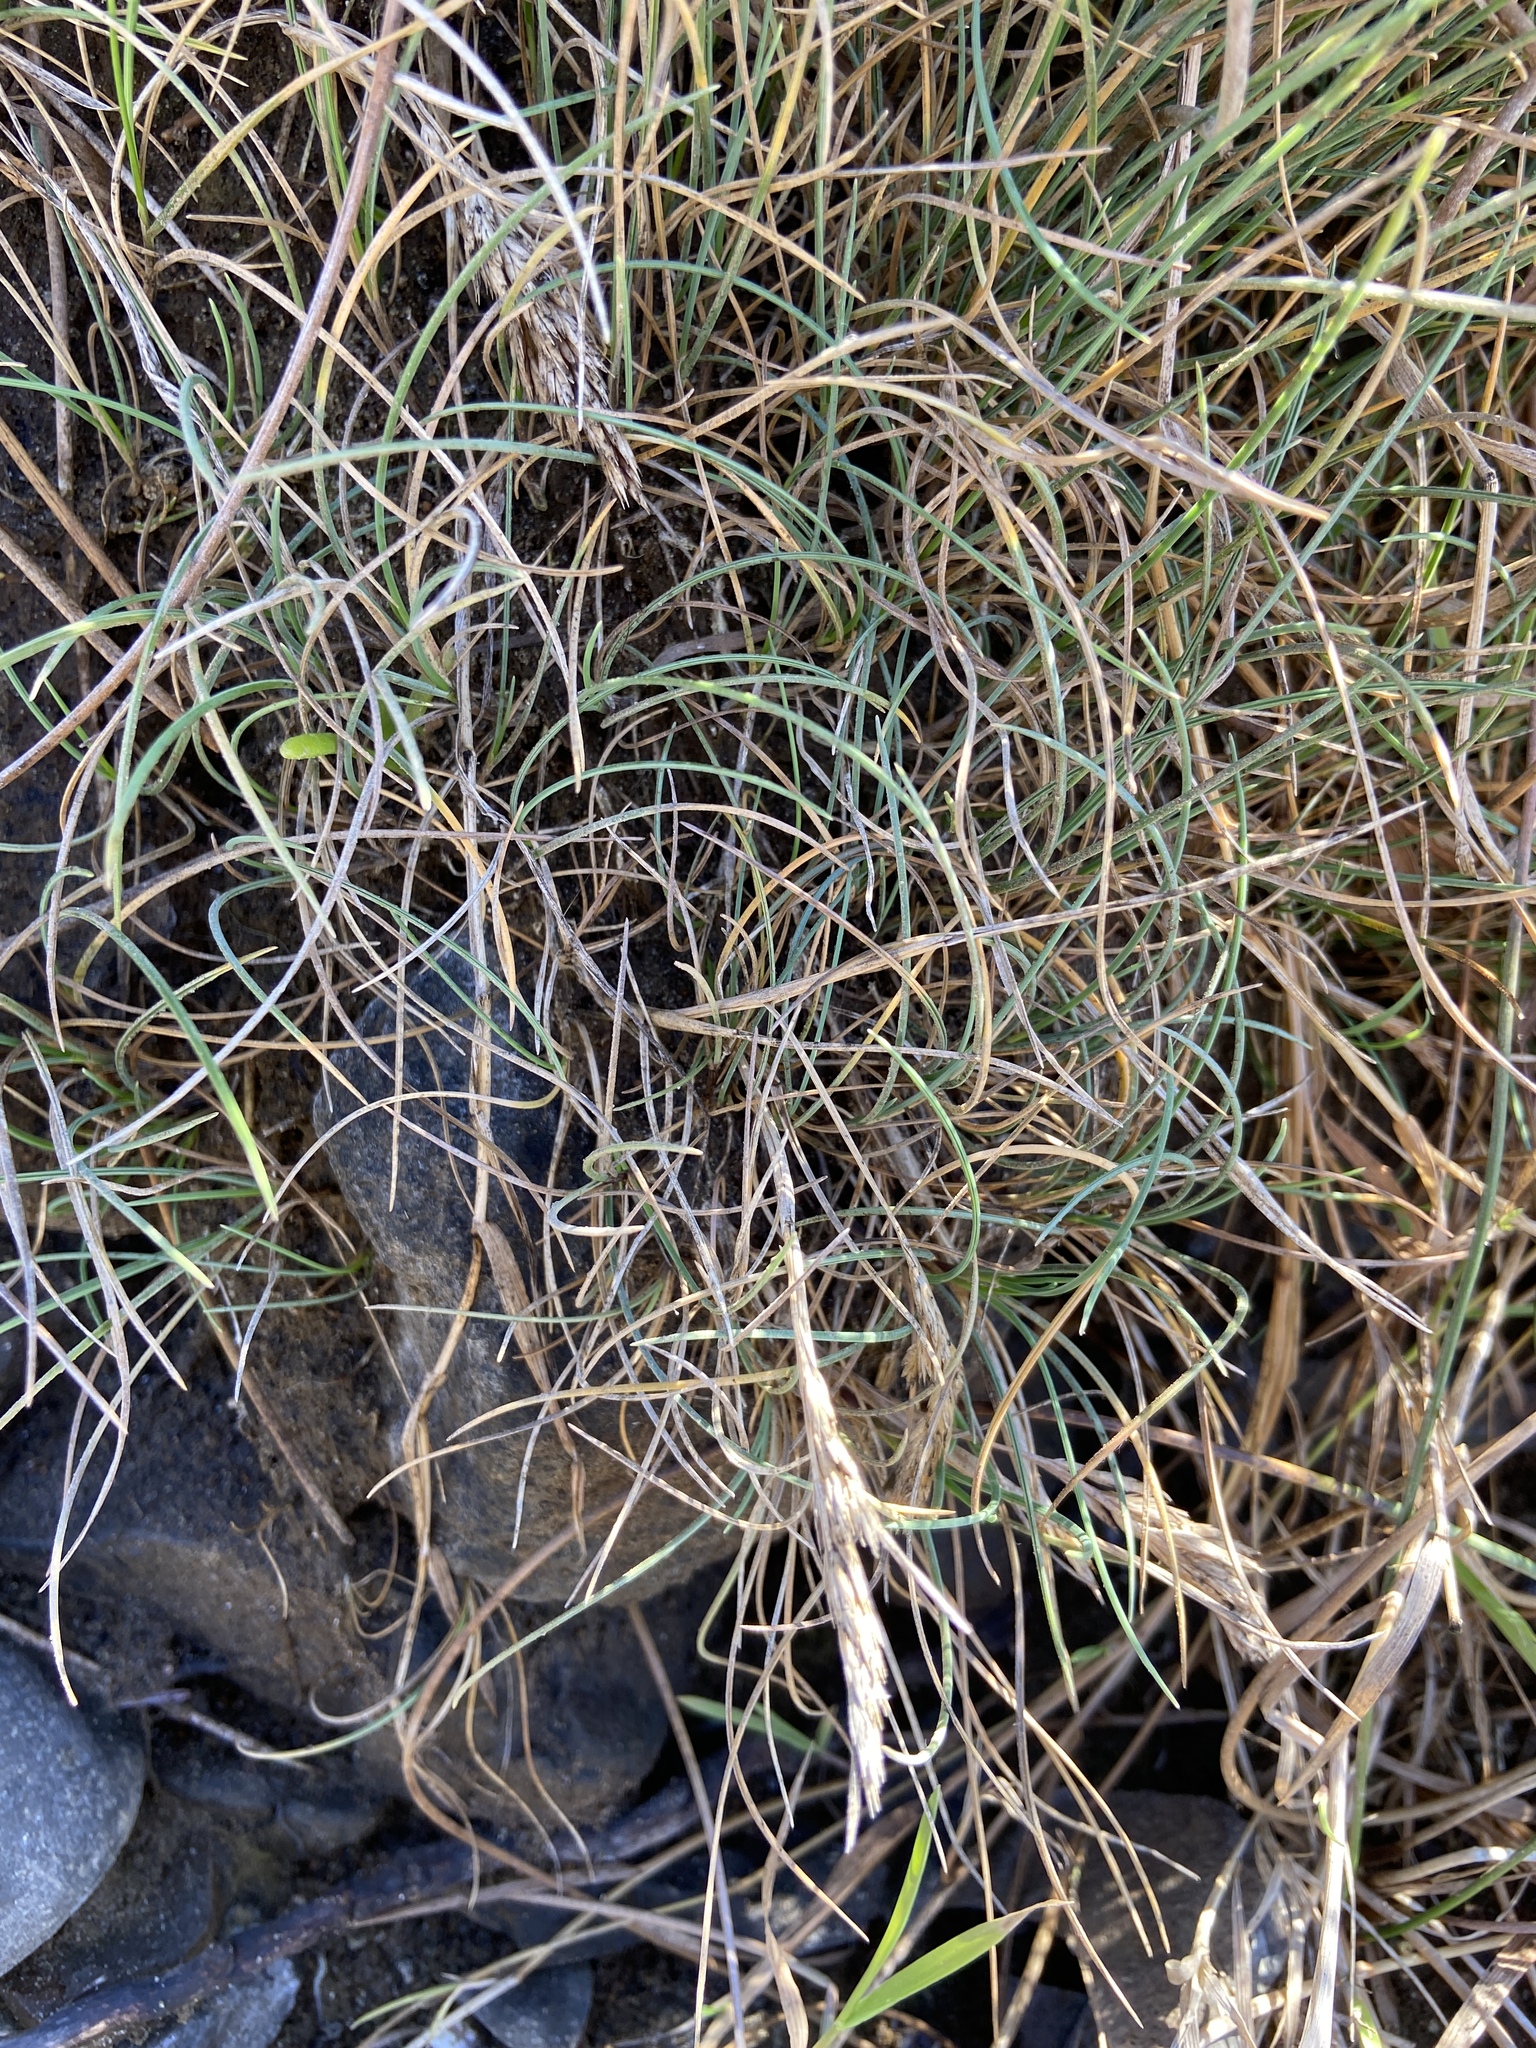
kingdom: Plantae
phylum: Tracheophyta
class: Liliopsida
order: Poales
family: Poaceae
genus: Festuca
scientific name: Festuca rubra
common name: Red fescue
